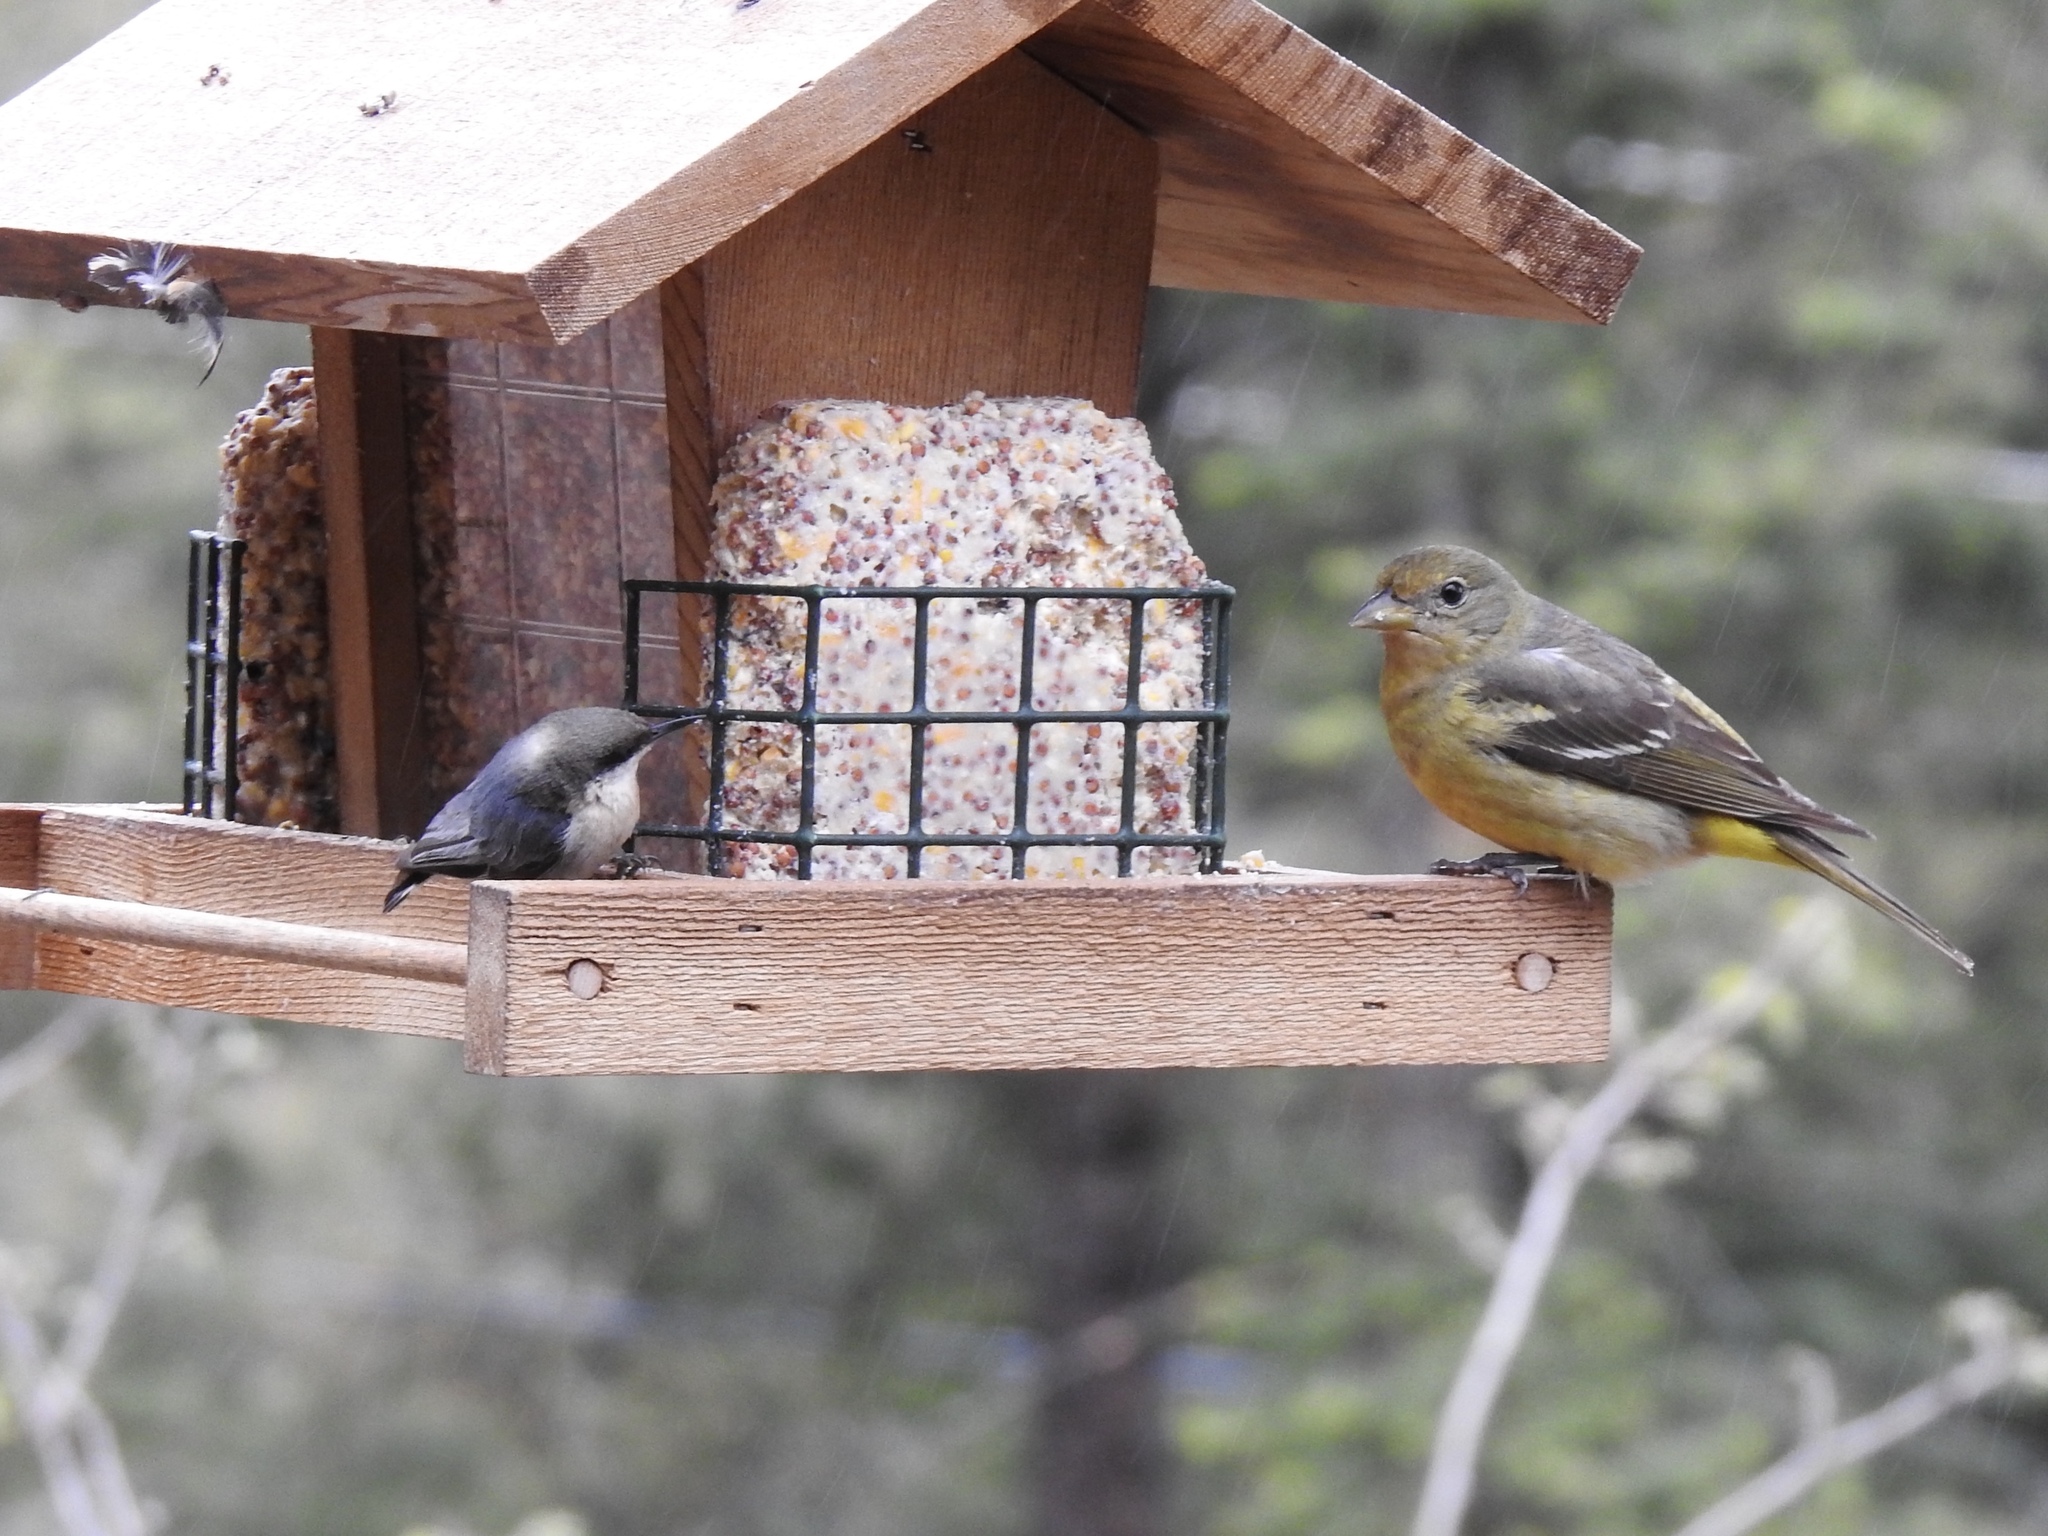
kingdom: Animalia
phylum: Chordata
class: Aves
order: Passeriformes
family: Sittidae
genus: Sitta
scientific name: Sitta pygmaea
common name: Pygmy nuthatch
